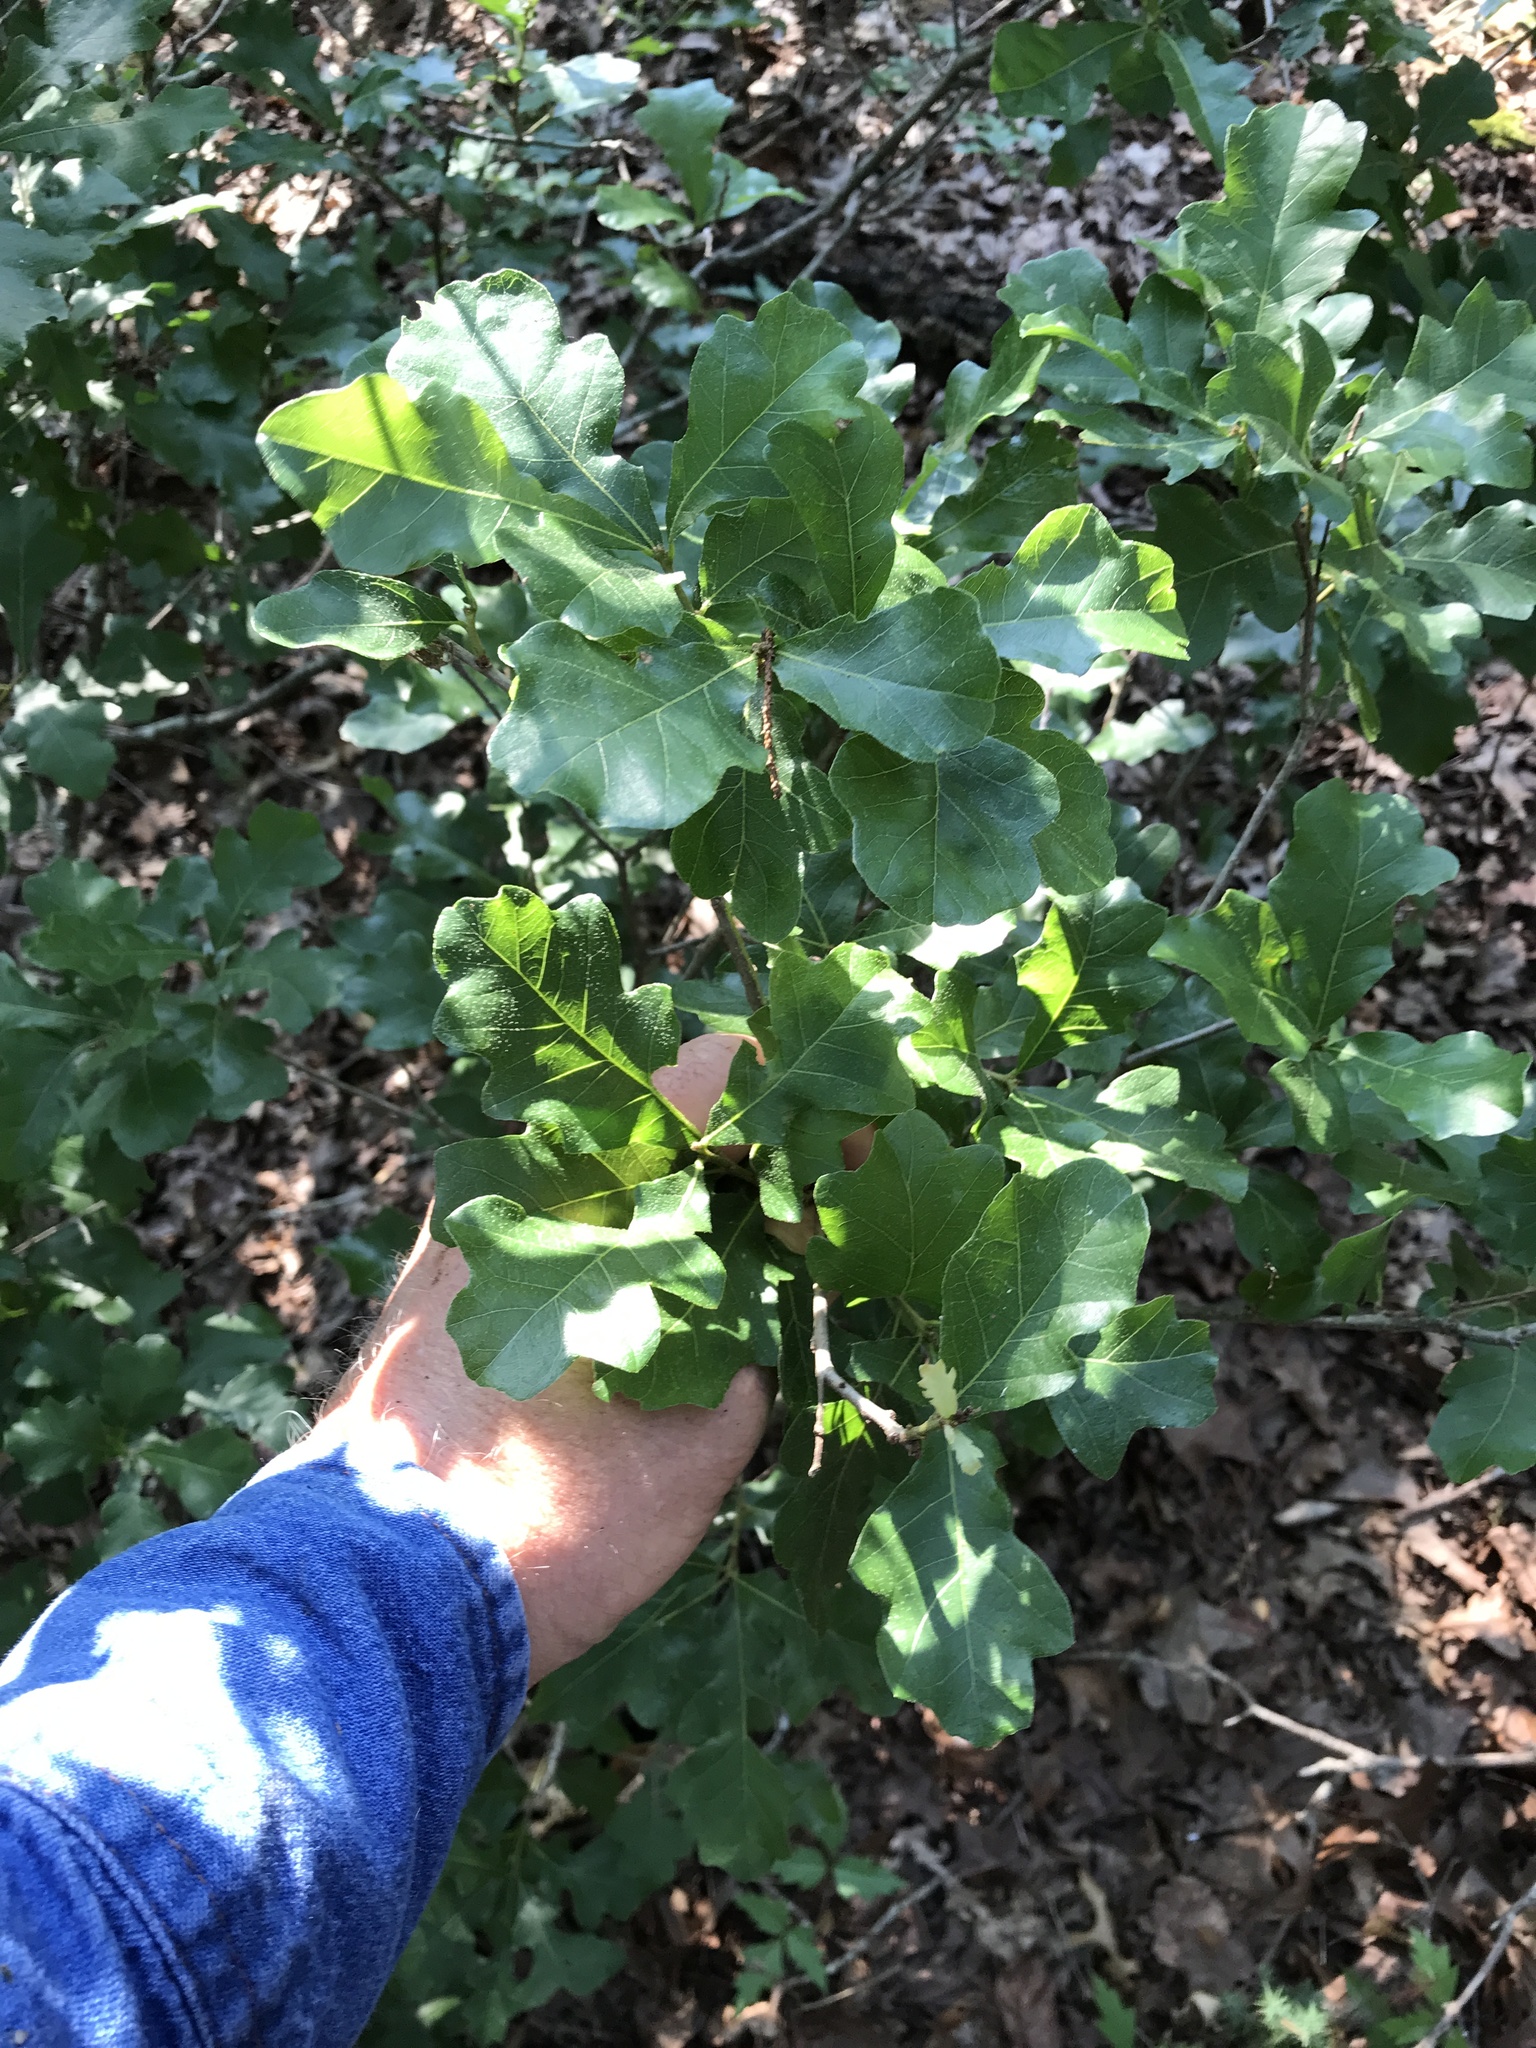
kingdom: Plantae
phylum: Tracheophyta
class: Magnoliopsida
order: Fagales
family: Fagaceae
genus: Quercus
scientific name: Quercus sinuata
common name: Durand oak
